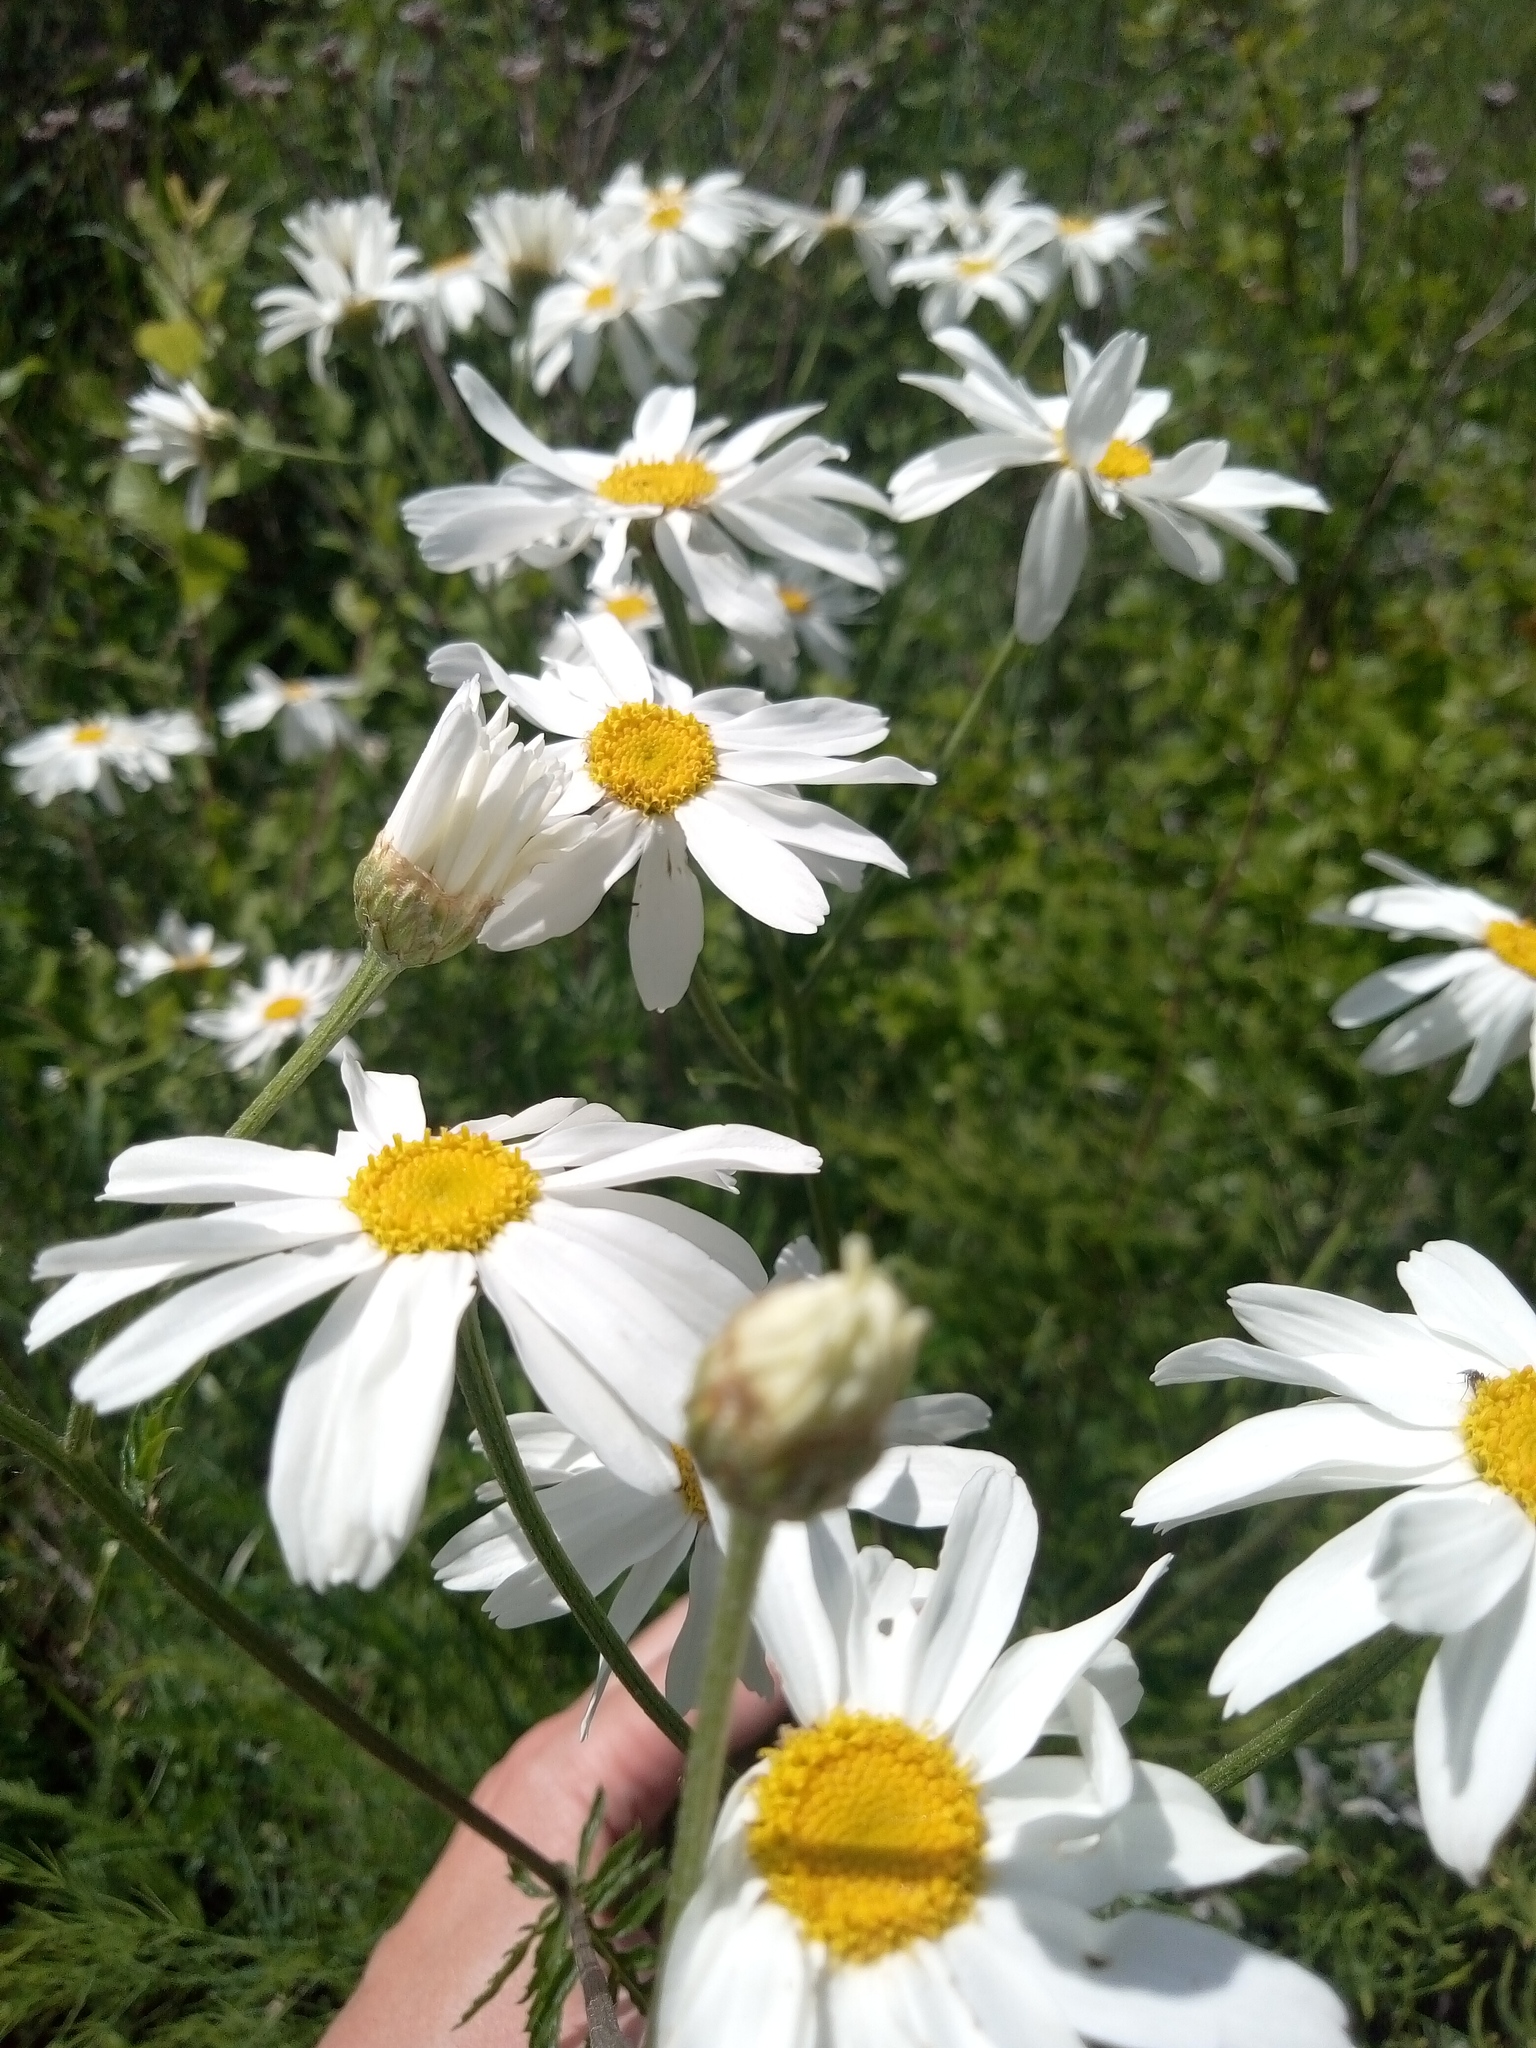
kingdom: Plantae
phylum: Tracheophyta
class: Magnoliopsida
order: Asterales
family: Asteraceae
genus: Tanacetum
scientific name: Tanacetum corymbosum
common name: Scentless feverfew
